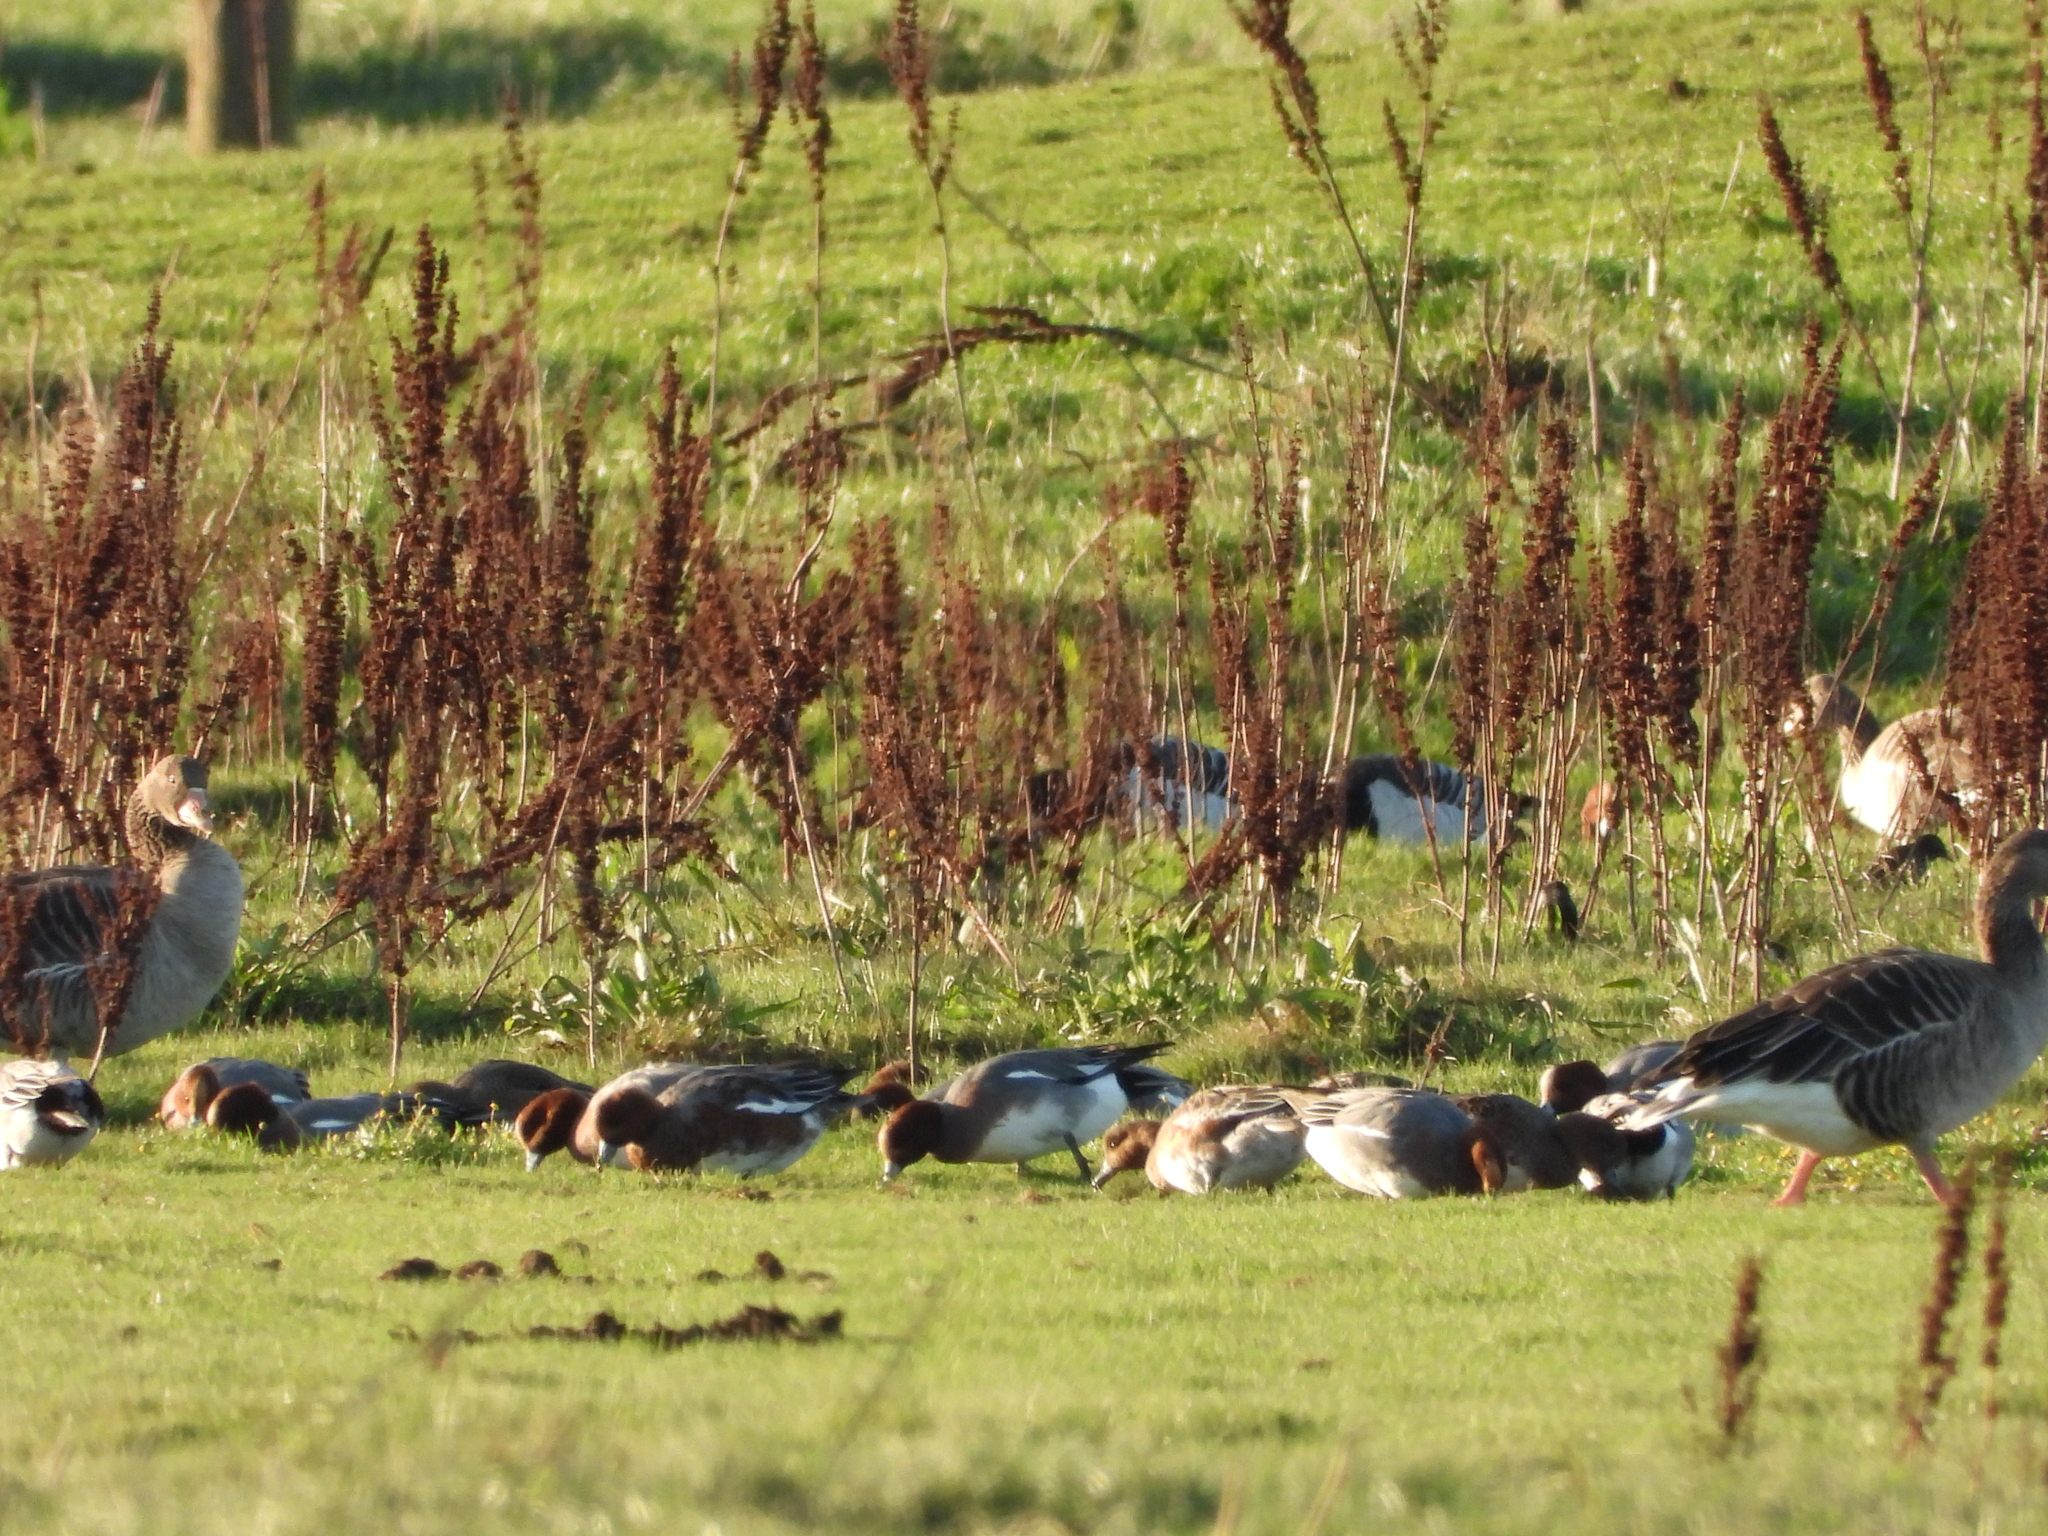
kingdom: Animalia
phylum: Chordata
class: Aves
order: Anseriformes
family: Anatidae
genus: Mareca
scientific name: Mareca penelope
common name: Eurasian wigeon
